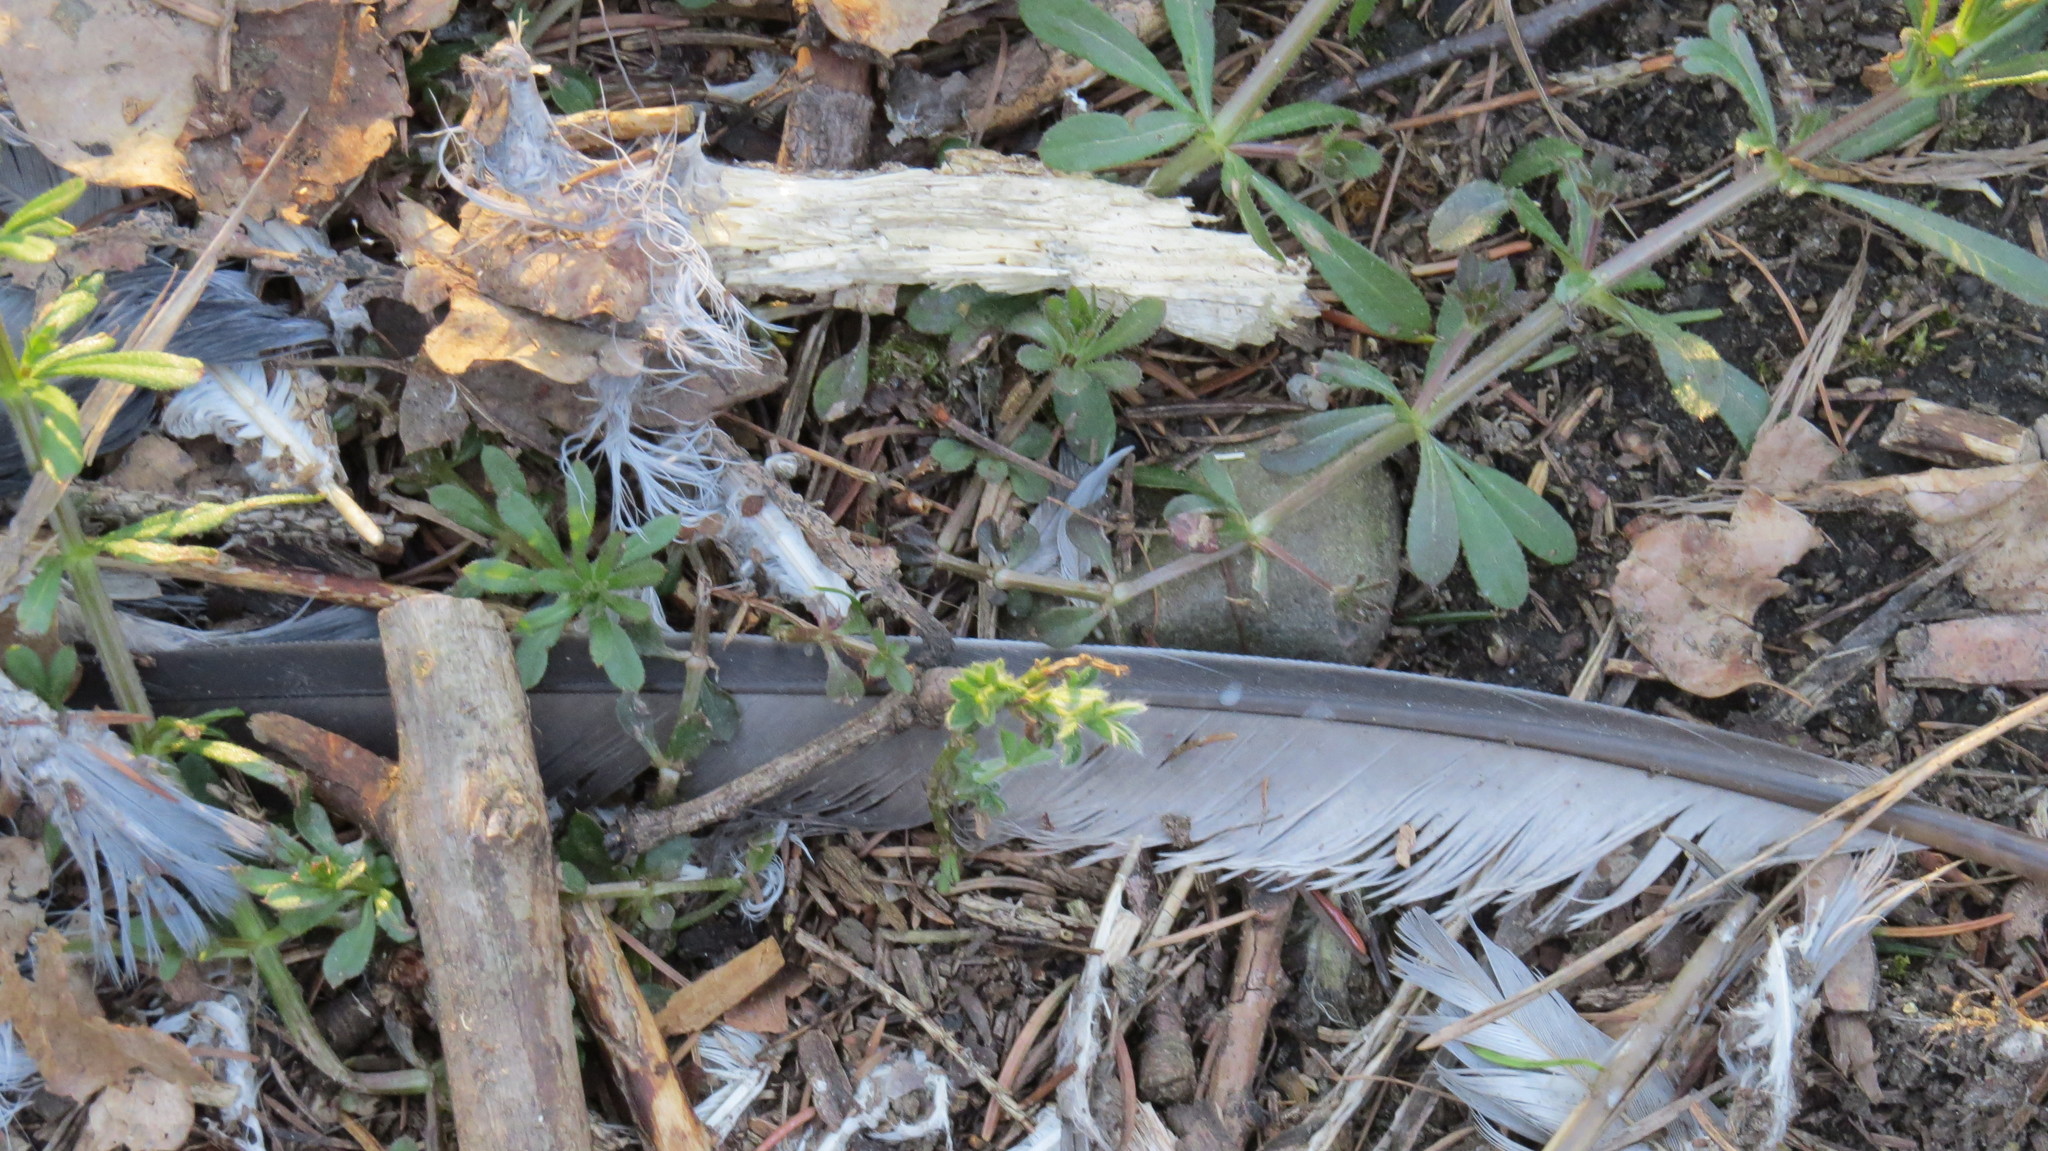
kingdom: Animalia
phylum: Chordata
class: Aves
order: Columbiformes
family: Columbidae
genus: Columba
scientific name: Columba palumbus
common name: Common wood pigeon
